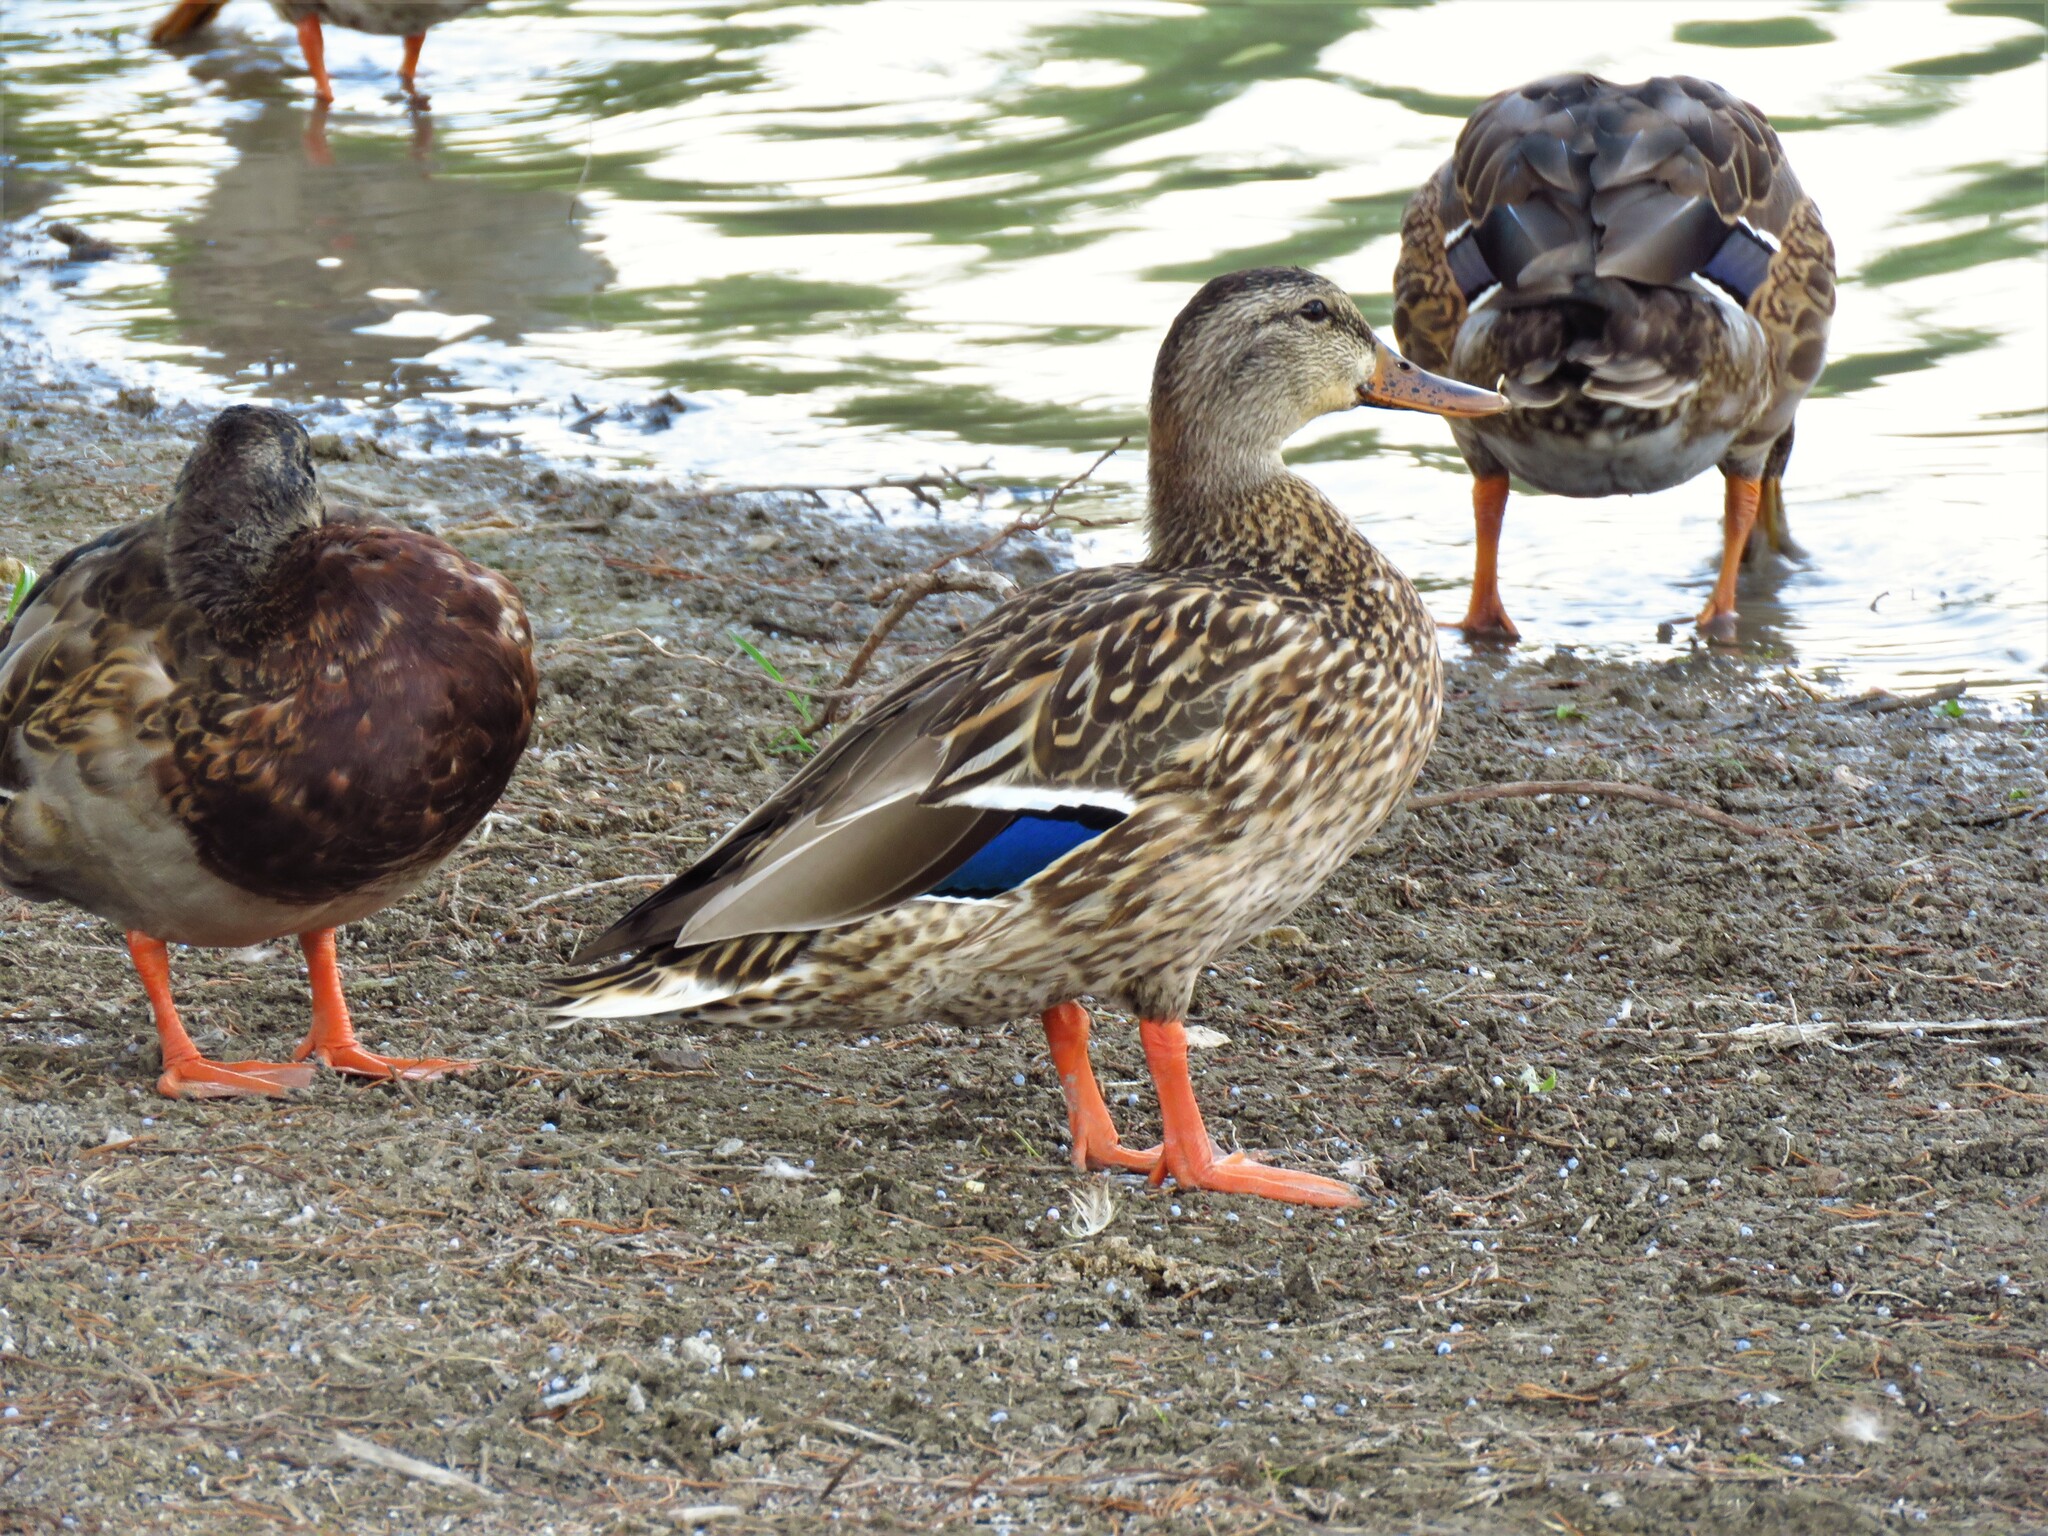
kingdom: Animalia
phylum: Chordata
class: Aves
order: Anseriformes
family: Anatidae
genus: Anas
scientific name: Anas platyrhynchos
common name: Mallard
